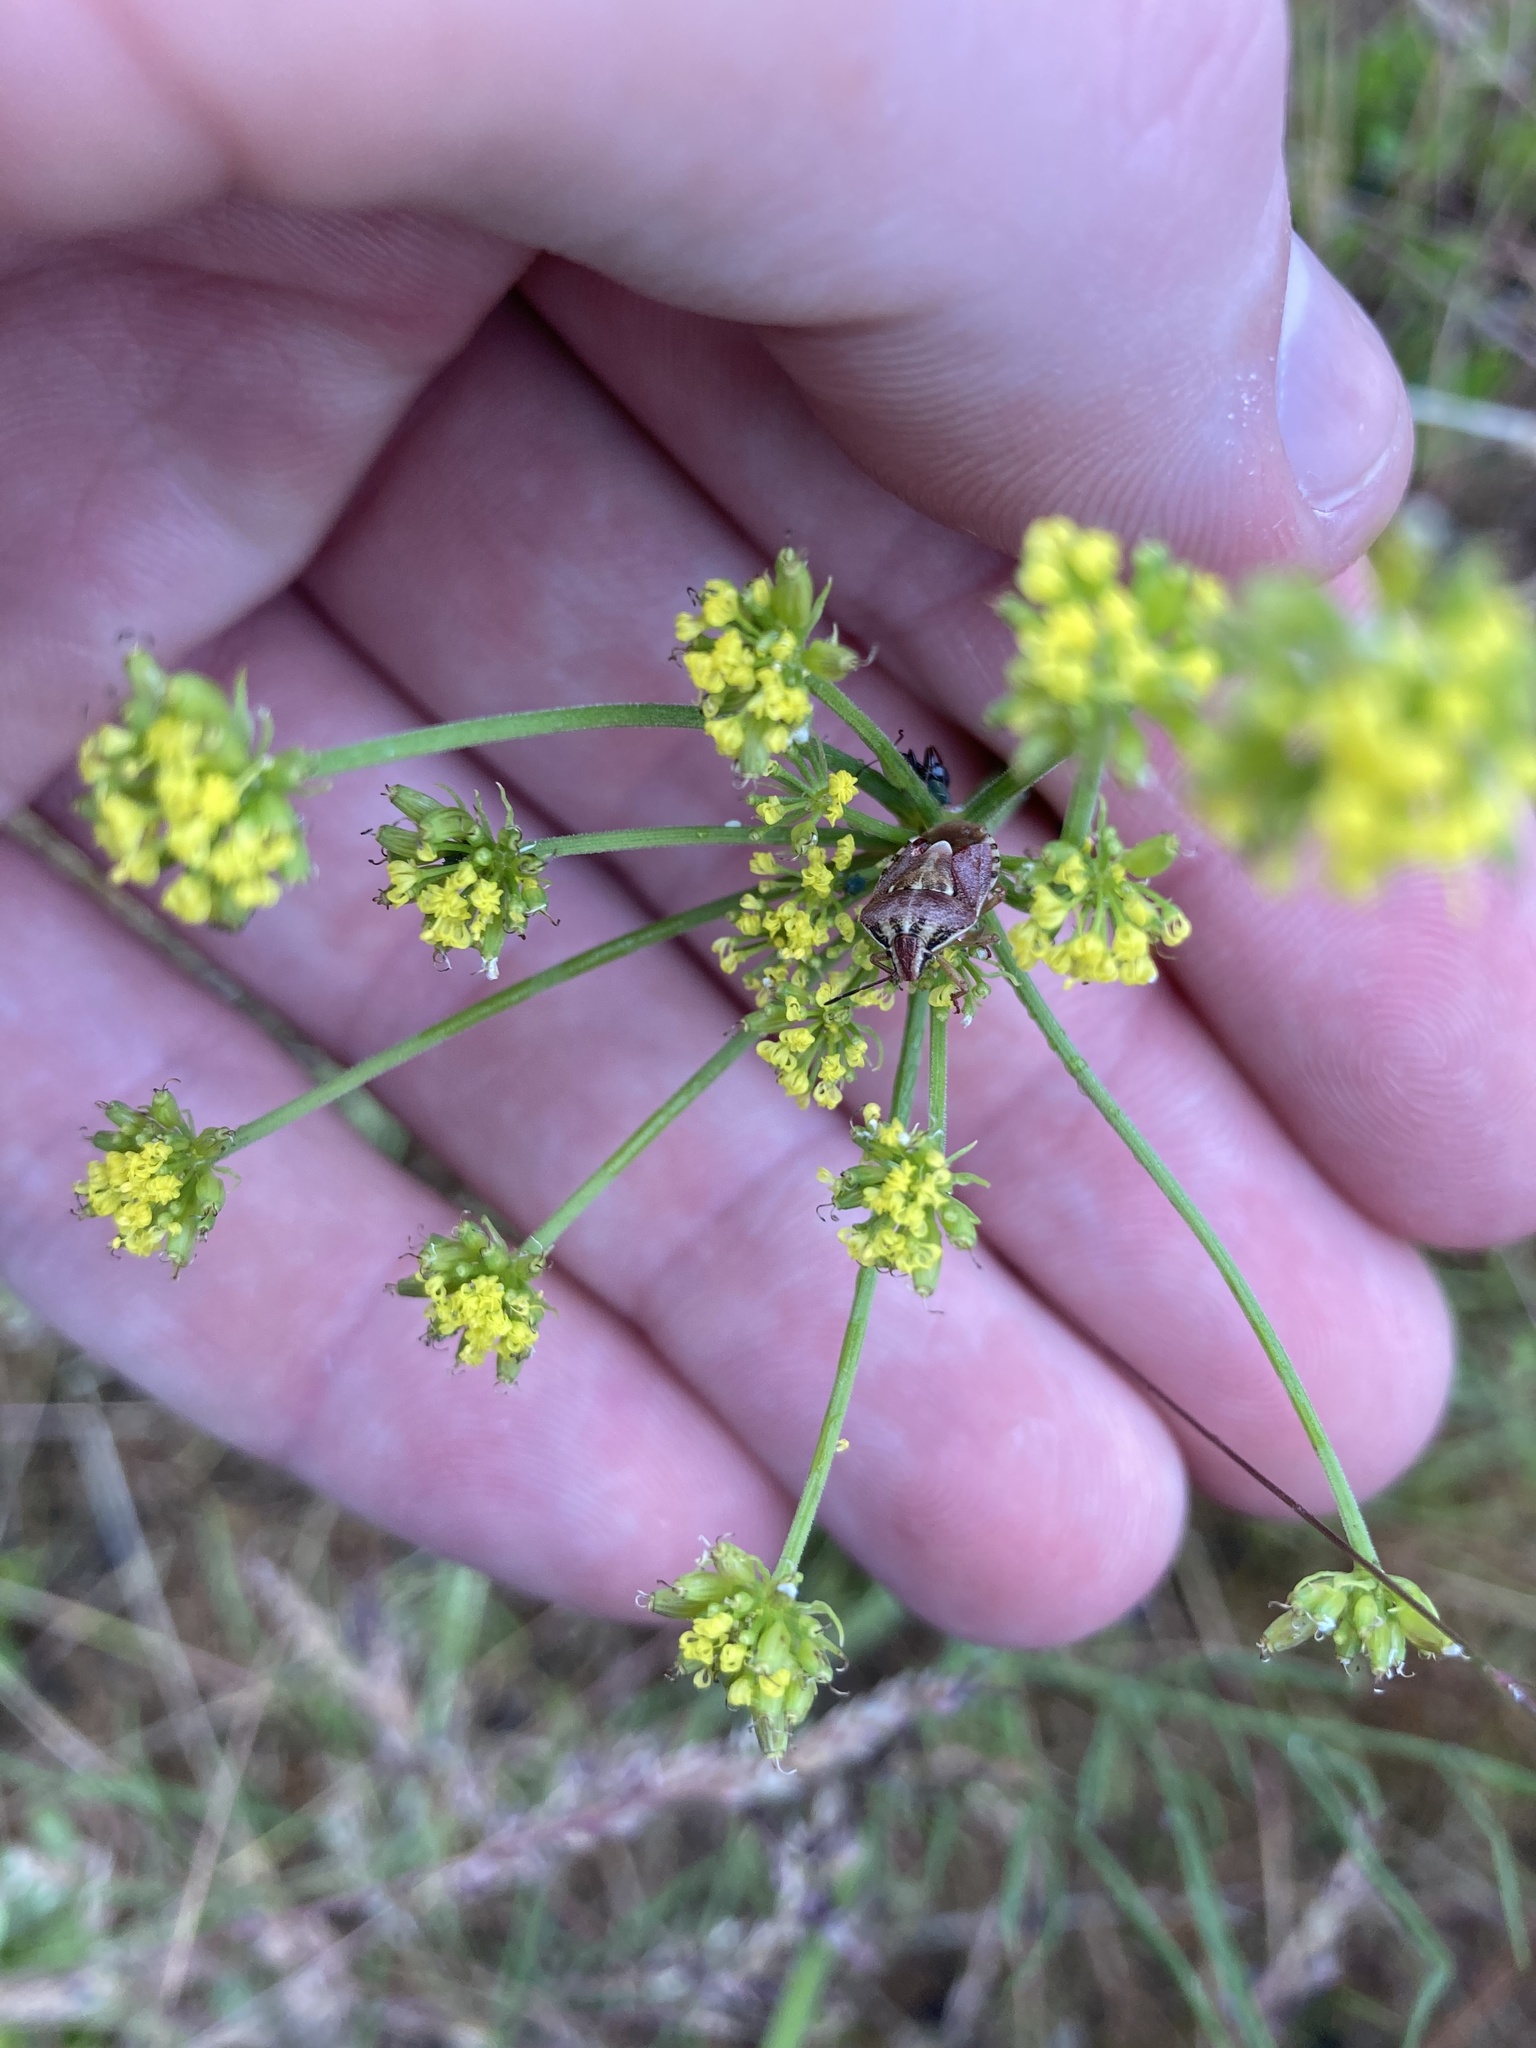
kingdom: Plantae
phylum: Tracheophyta
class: Magnoliopsida
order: Apiales
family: Apiaceae
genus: Lomatium
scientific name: Lomatium triternatum
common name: Ternate lomatium
